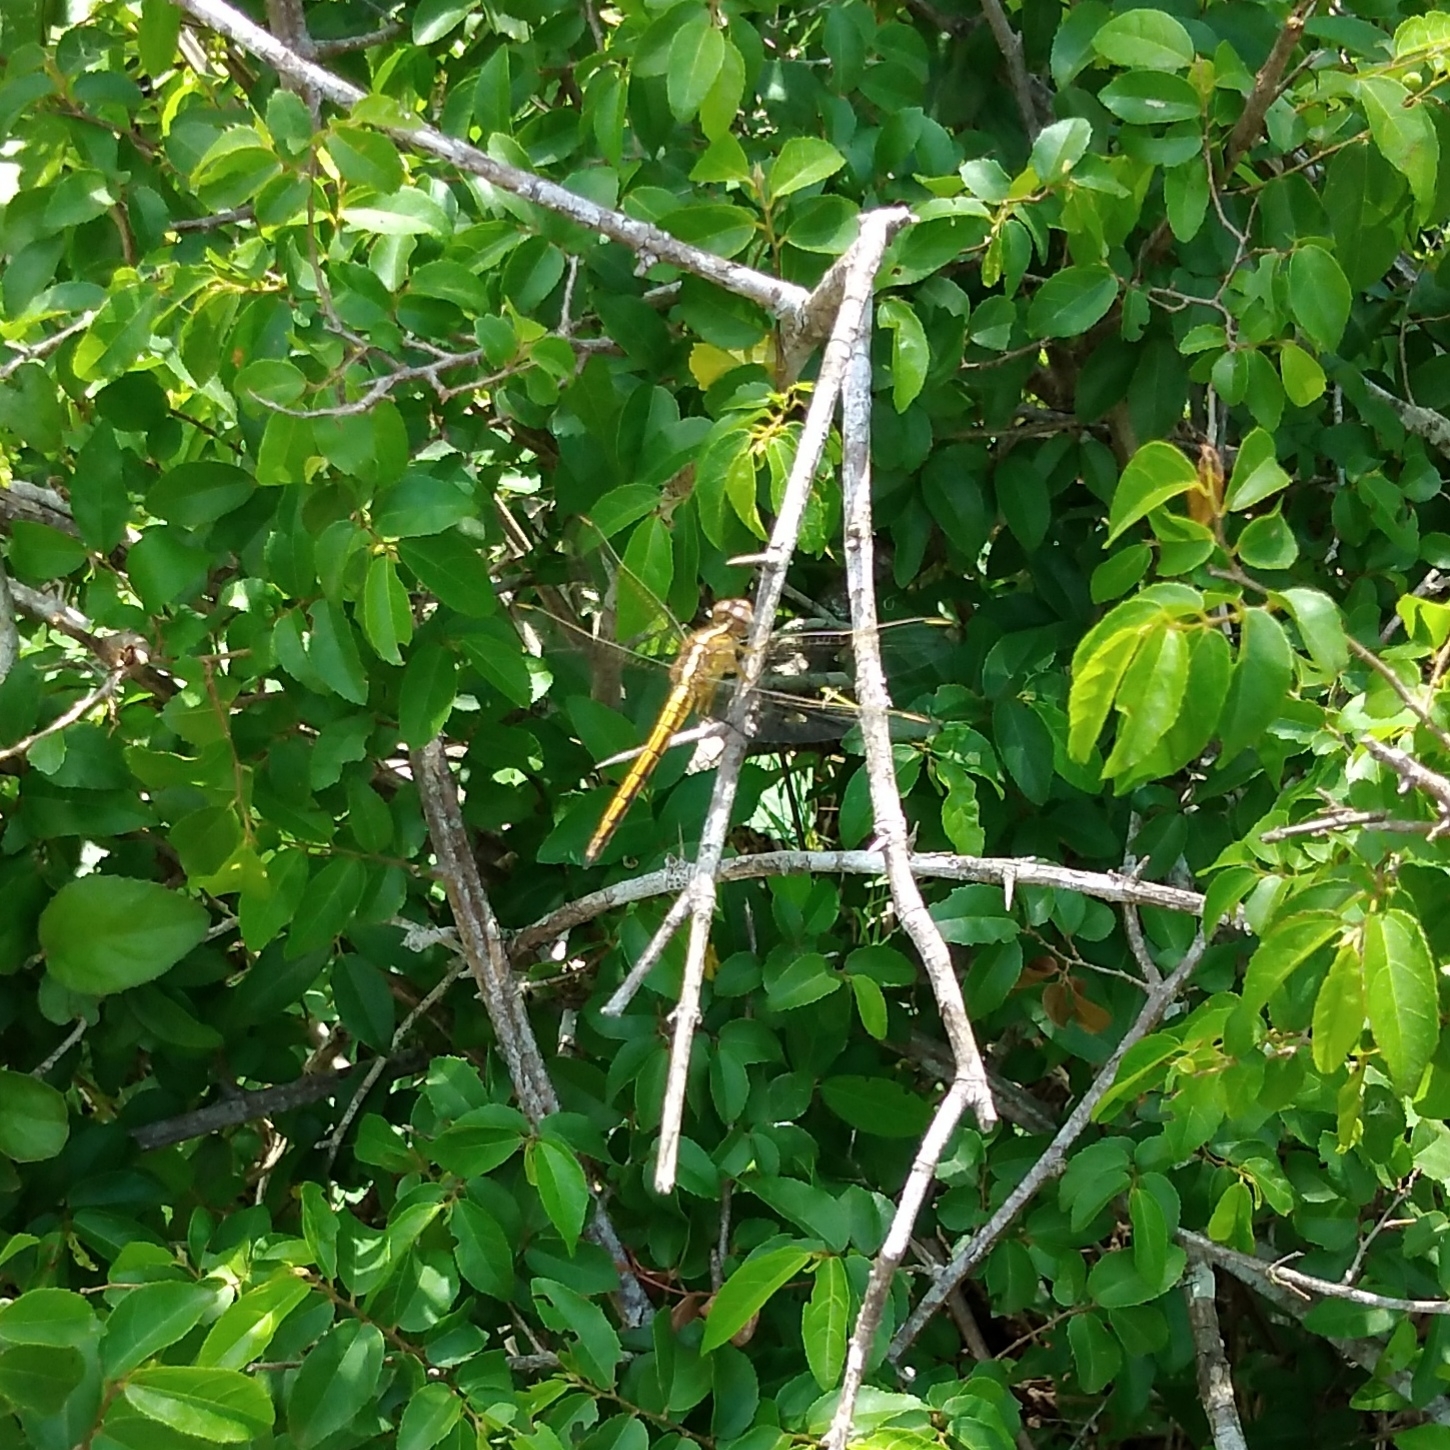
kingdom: Animalia
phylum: Arthropoda
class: Insecta
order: Odonata
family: Libellulidae
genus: Nesciothemis
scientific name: Nesciothemis farinosa
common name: Eastern blacktail
